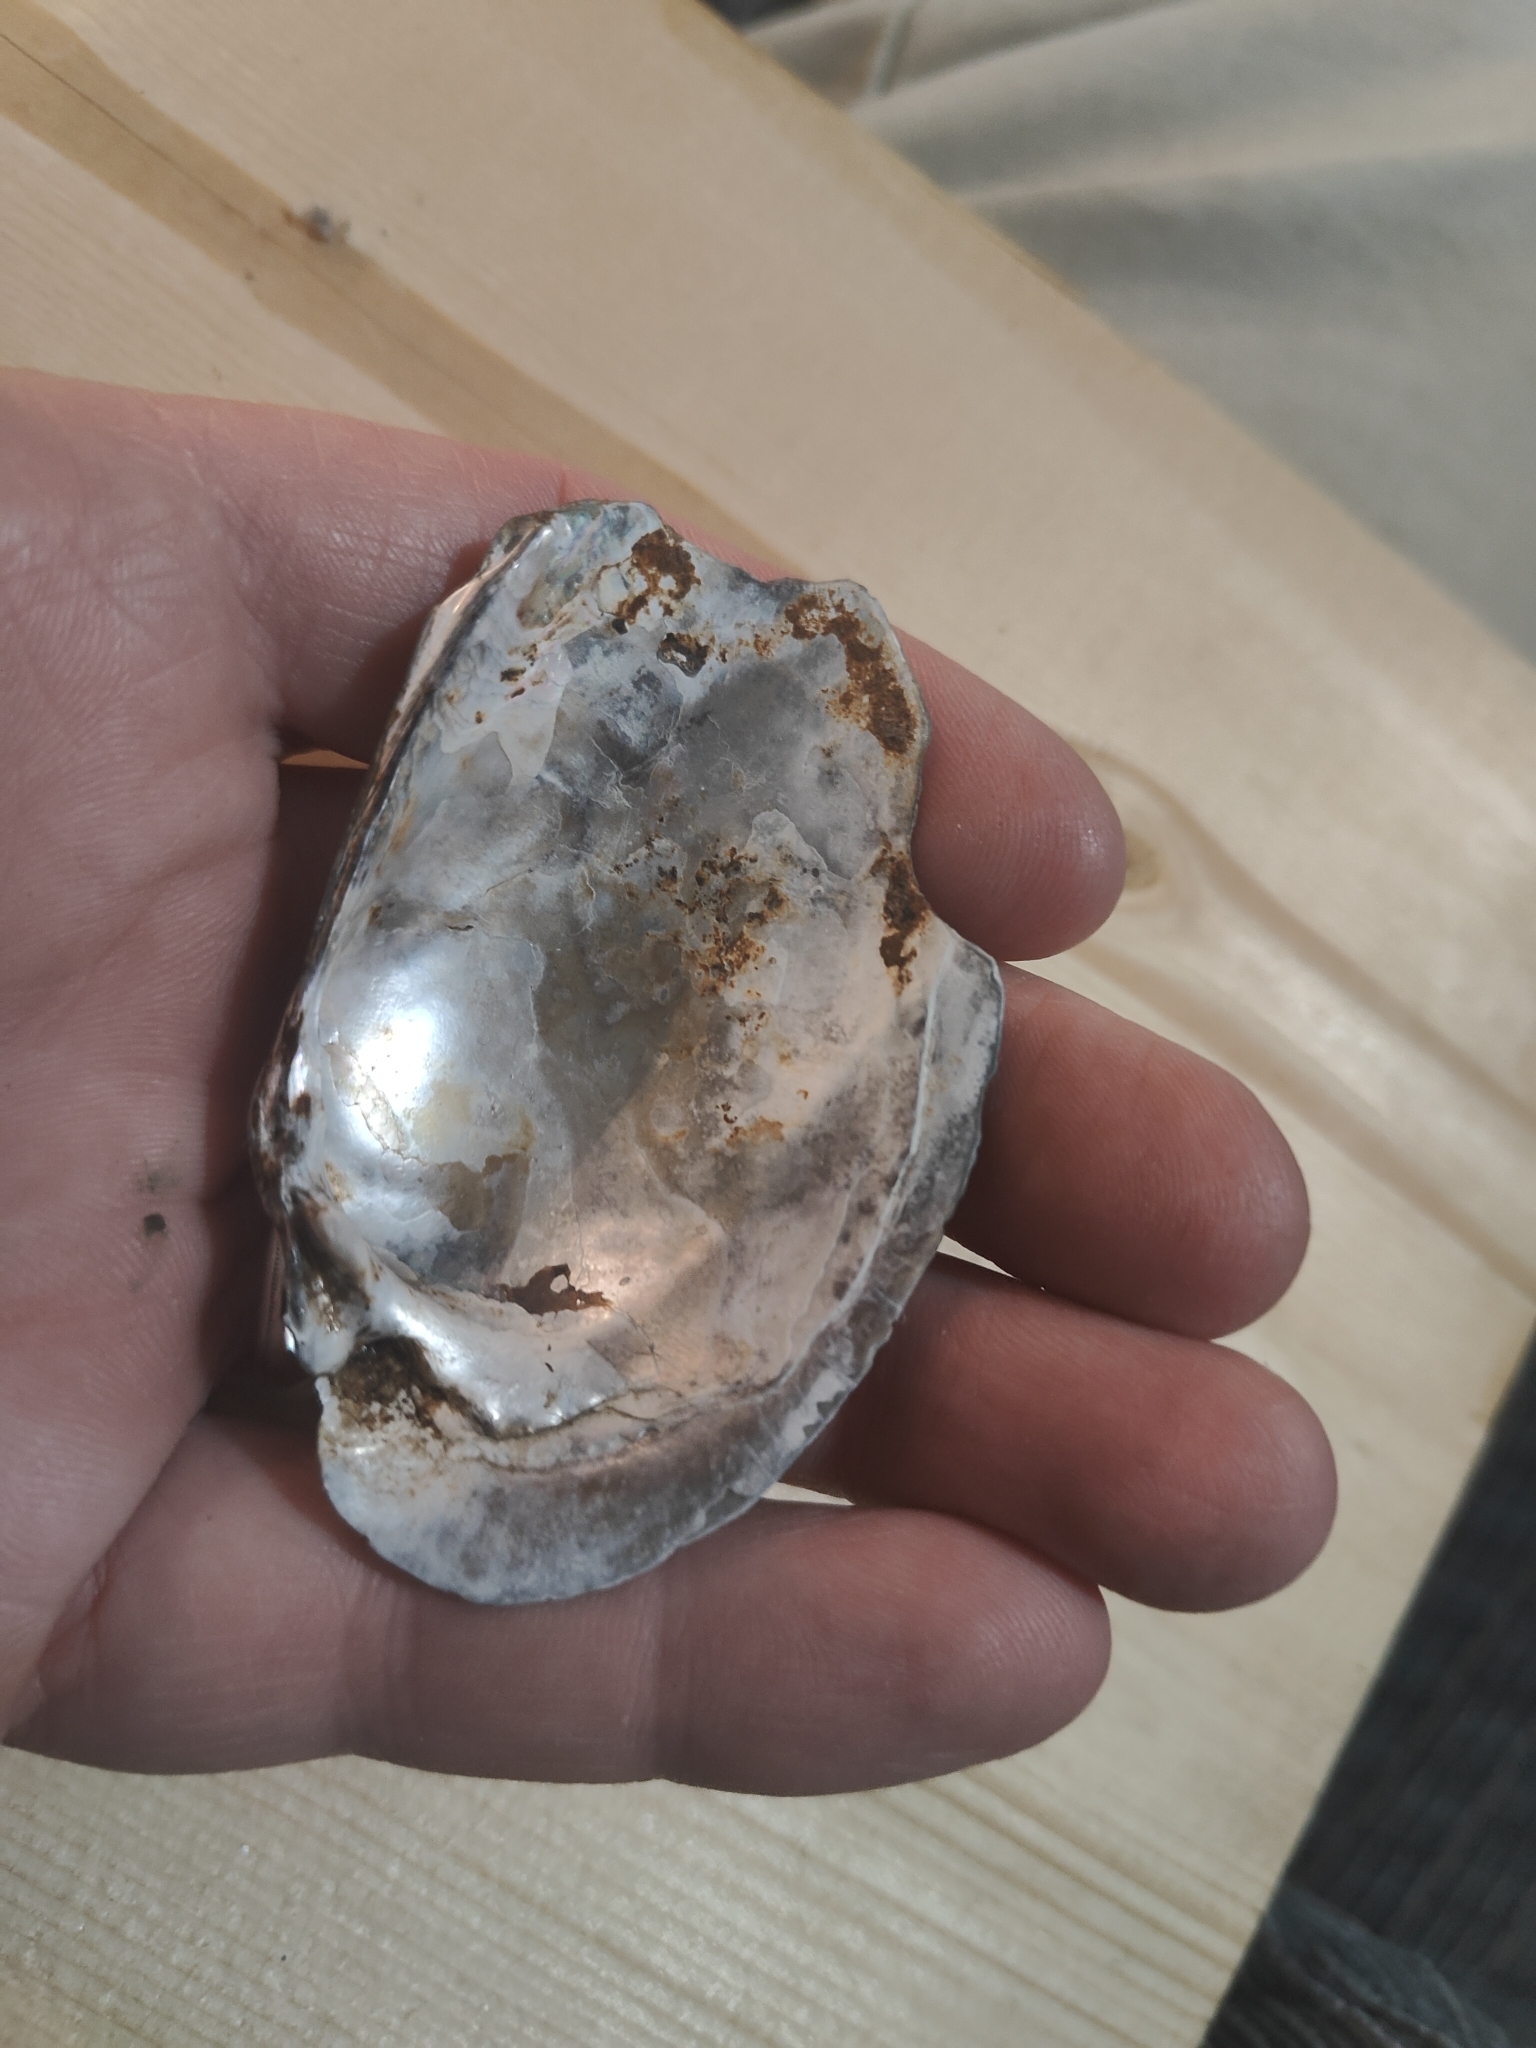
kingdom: Animalia
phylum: Mollusca
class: Bivalvia
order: Unionida
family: Unionidae
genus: Lampsilis
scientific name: Lampsilis cardium
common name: Plain pocketbook
